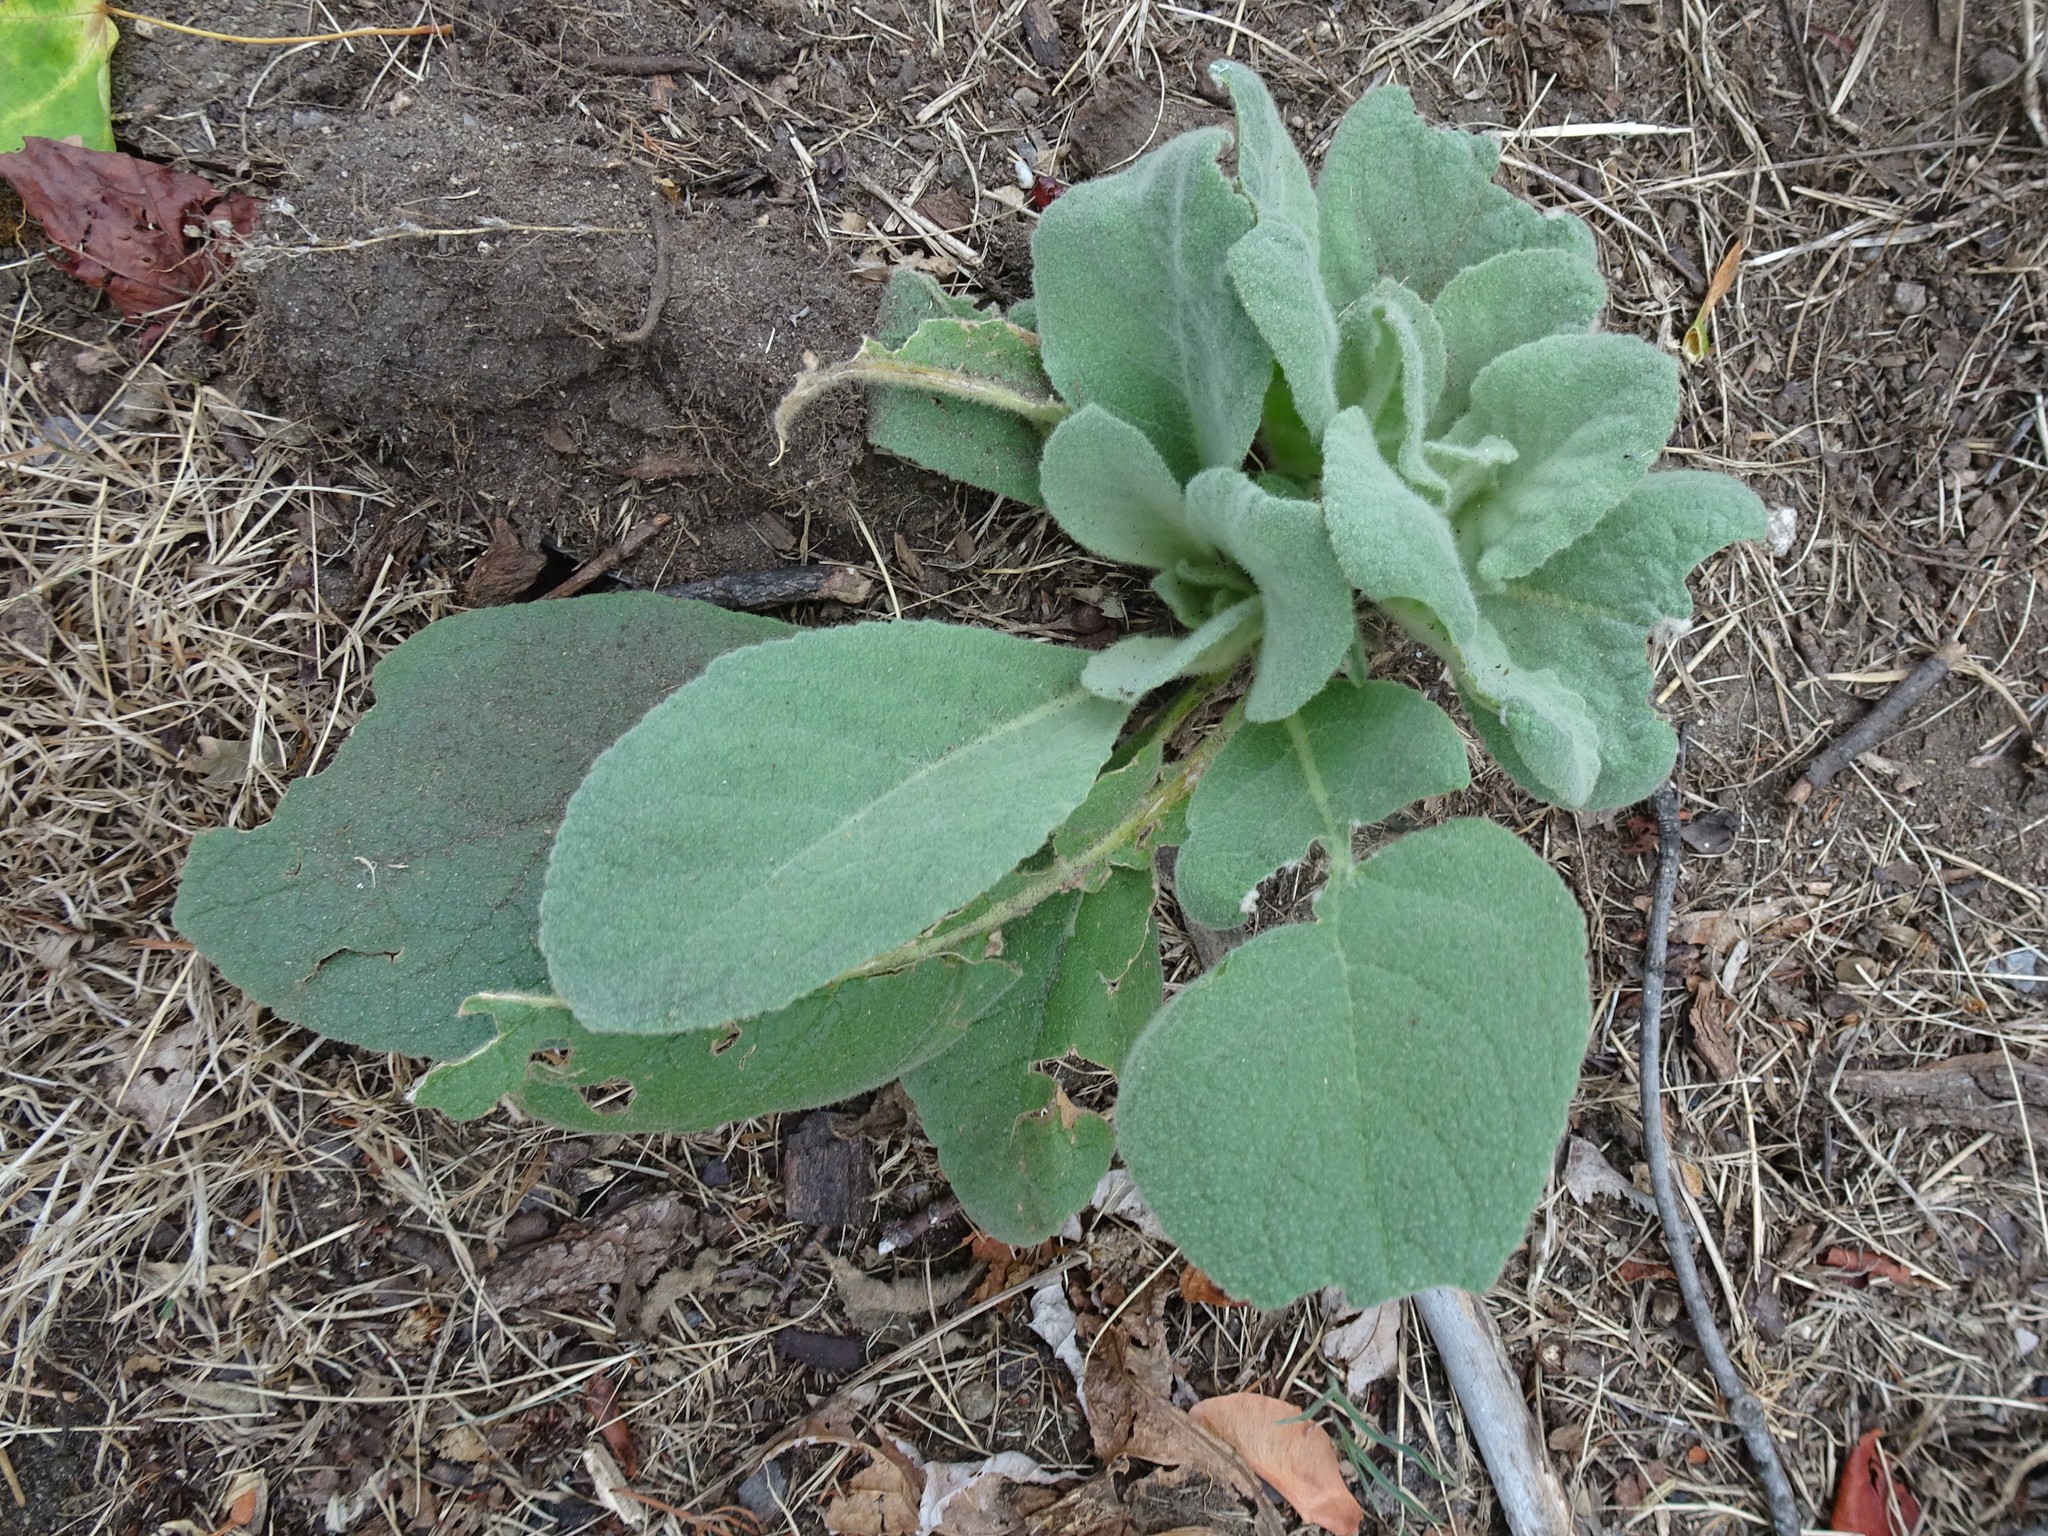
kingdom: Plantae
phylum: Tracheophyta
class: Magnoliopsida
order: Lamiales
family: Scrophulariaceae
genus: Verbascum
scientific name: Verbascum thapsus
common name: Common mullein
